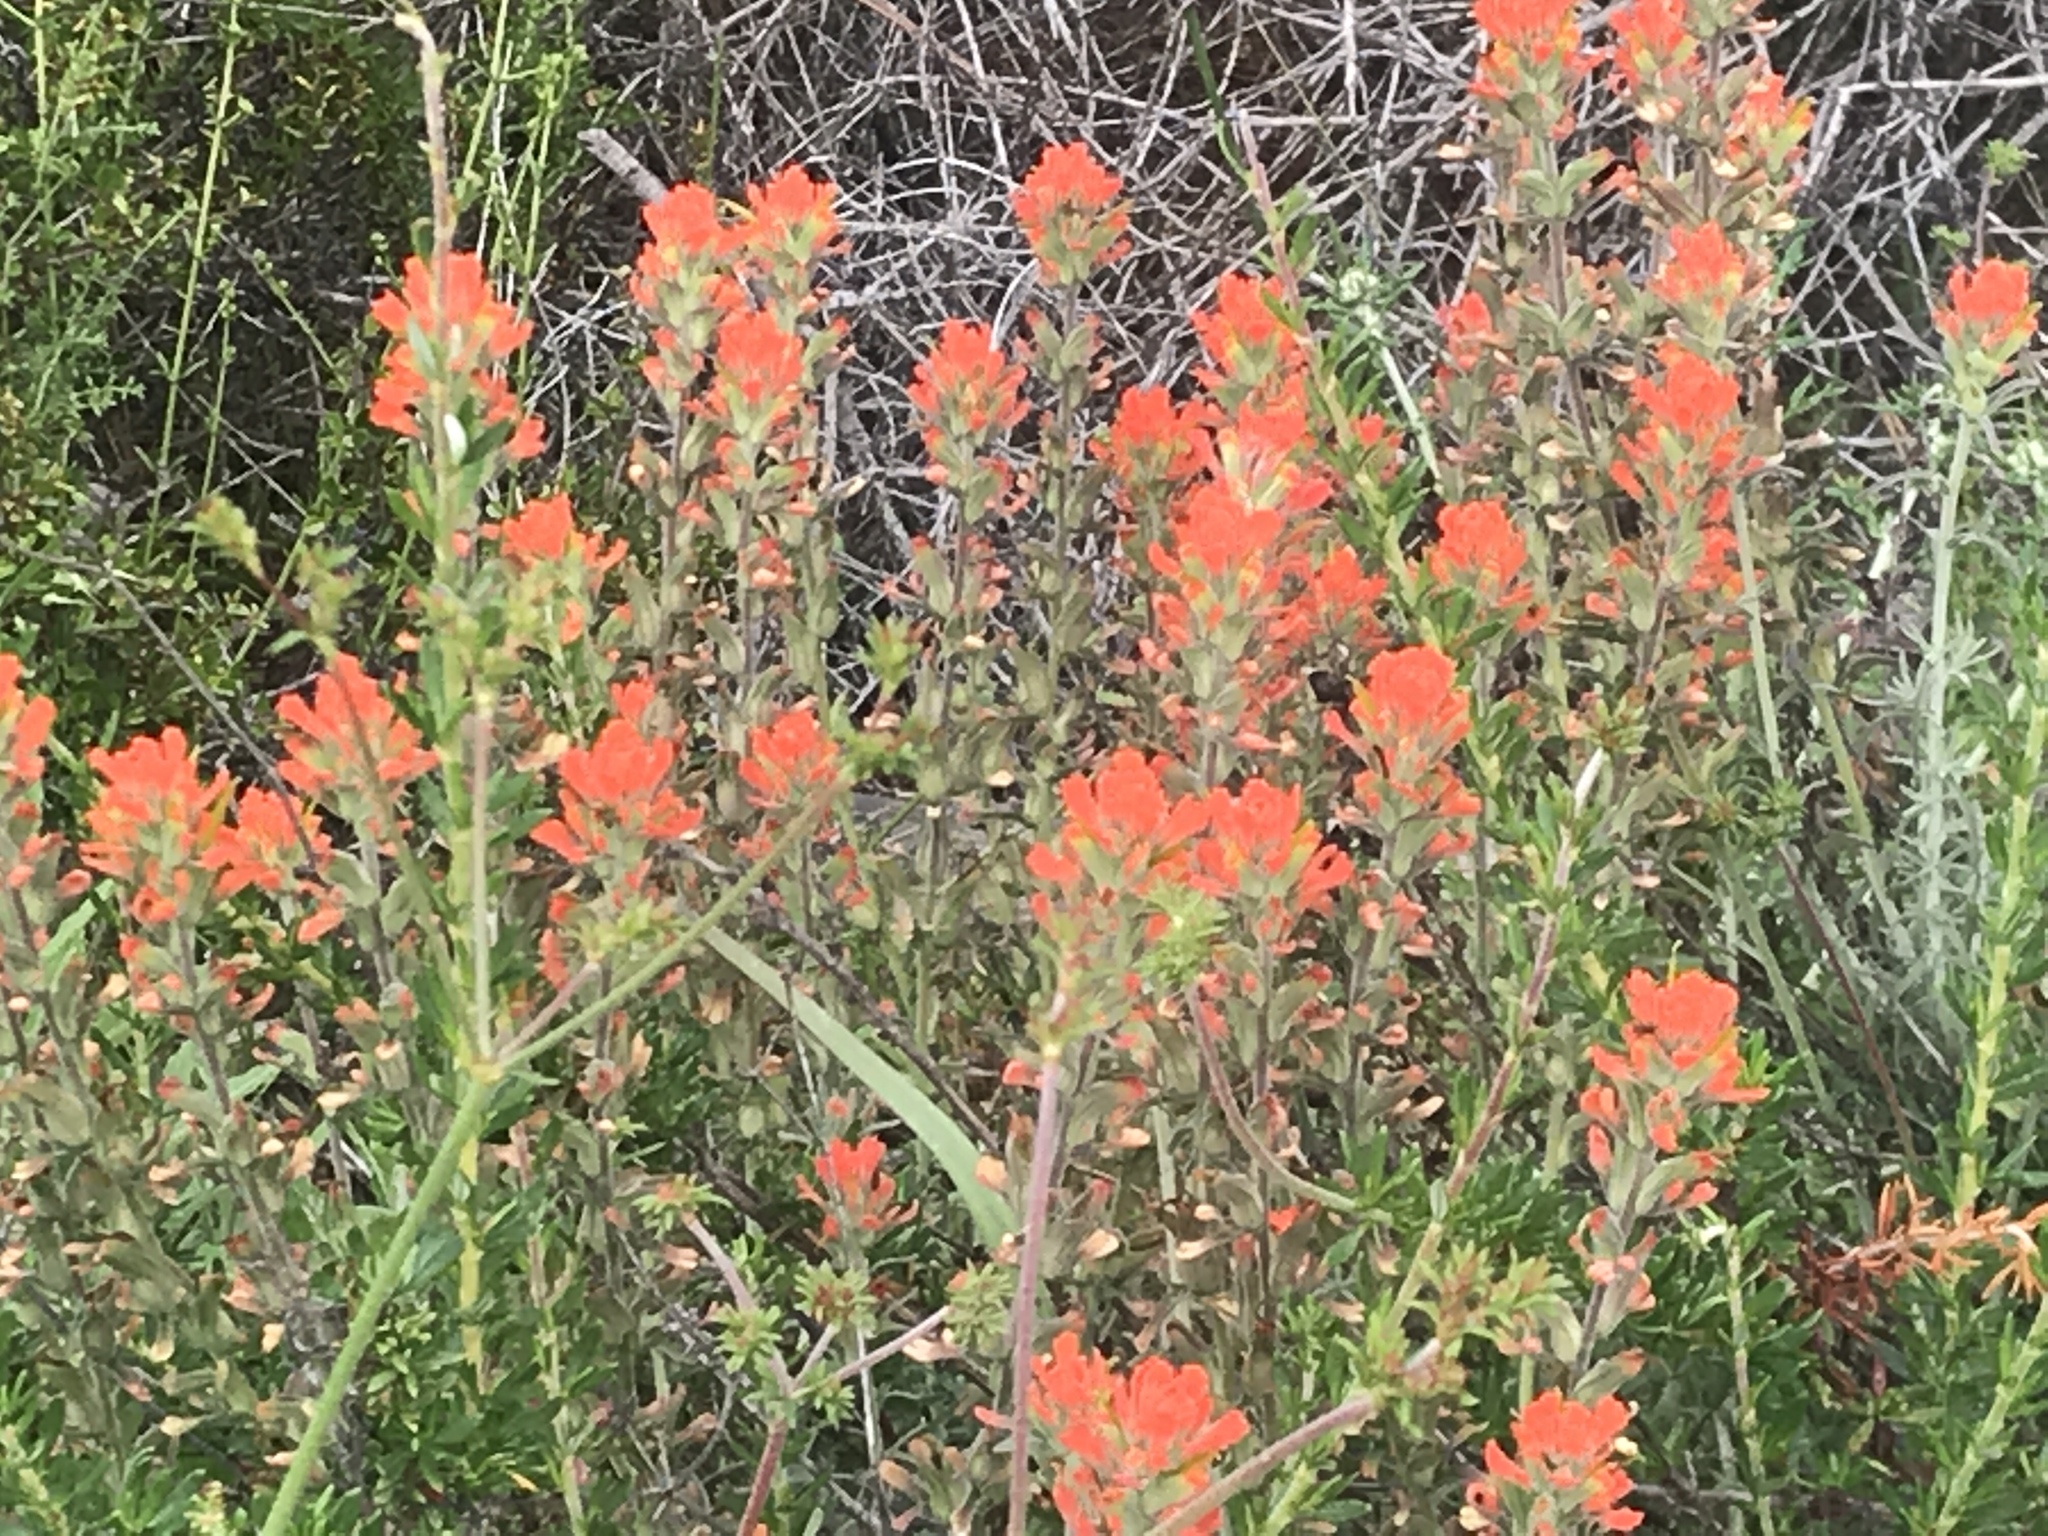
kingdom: Plantae
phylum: Tracheophyta
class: Magnoliopsida
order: Lamiales
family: Orobanchaceae
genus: Castilleja
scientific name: Castilleja foliolosa
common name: Woolly indian paintbrush
